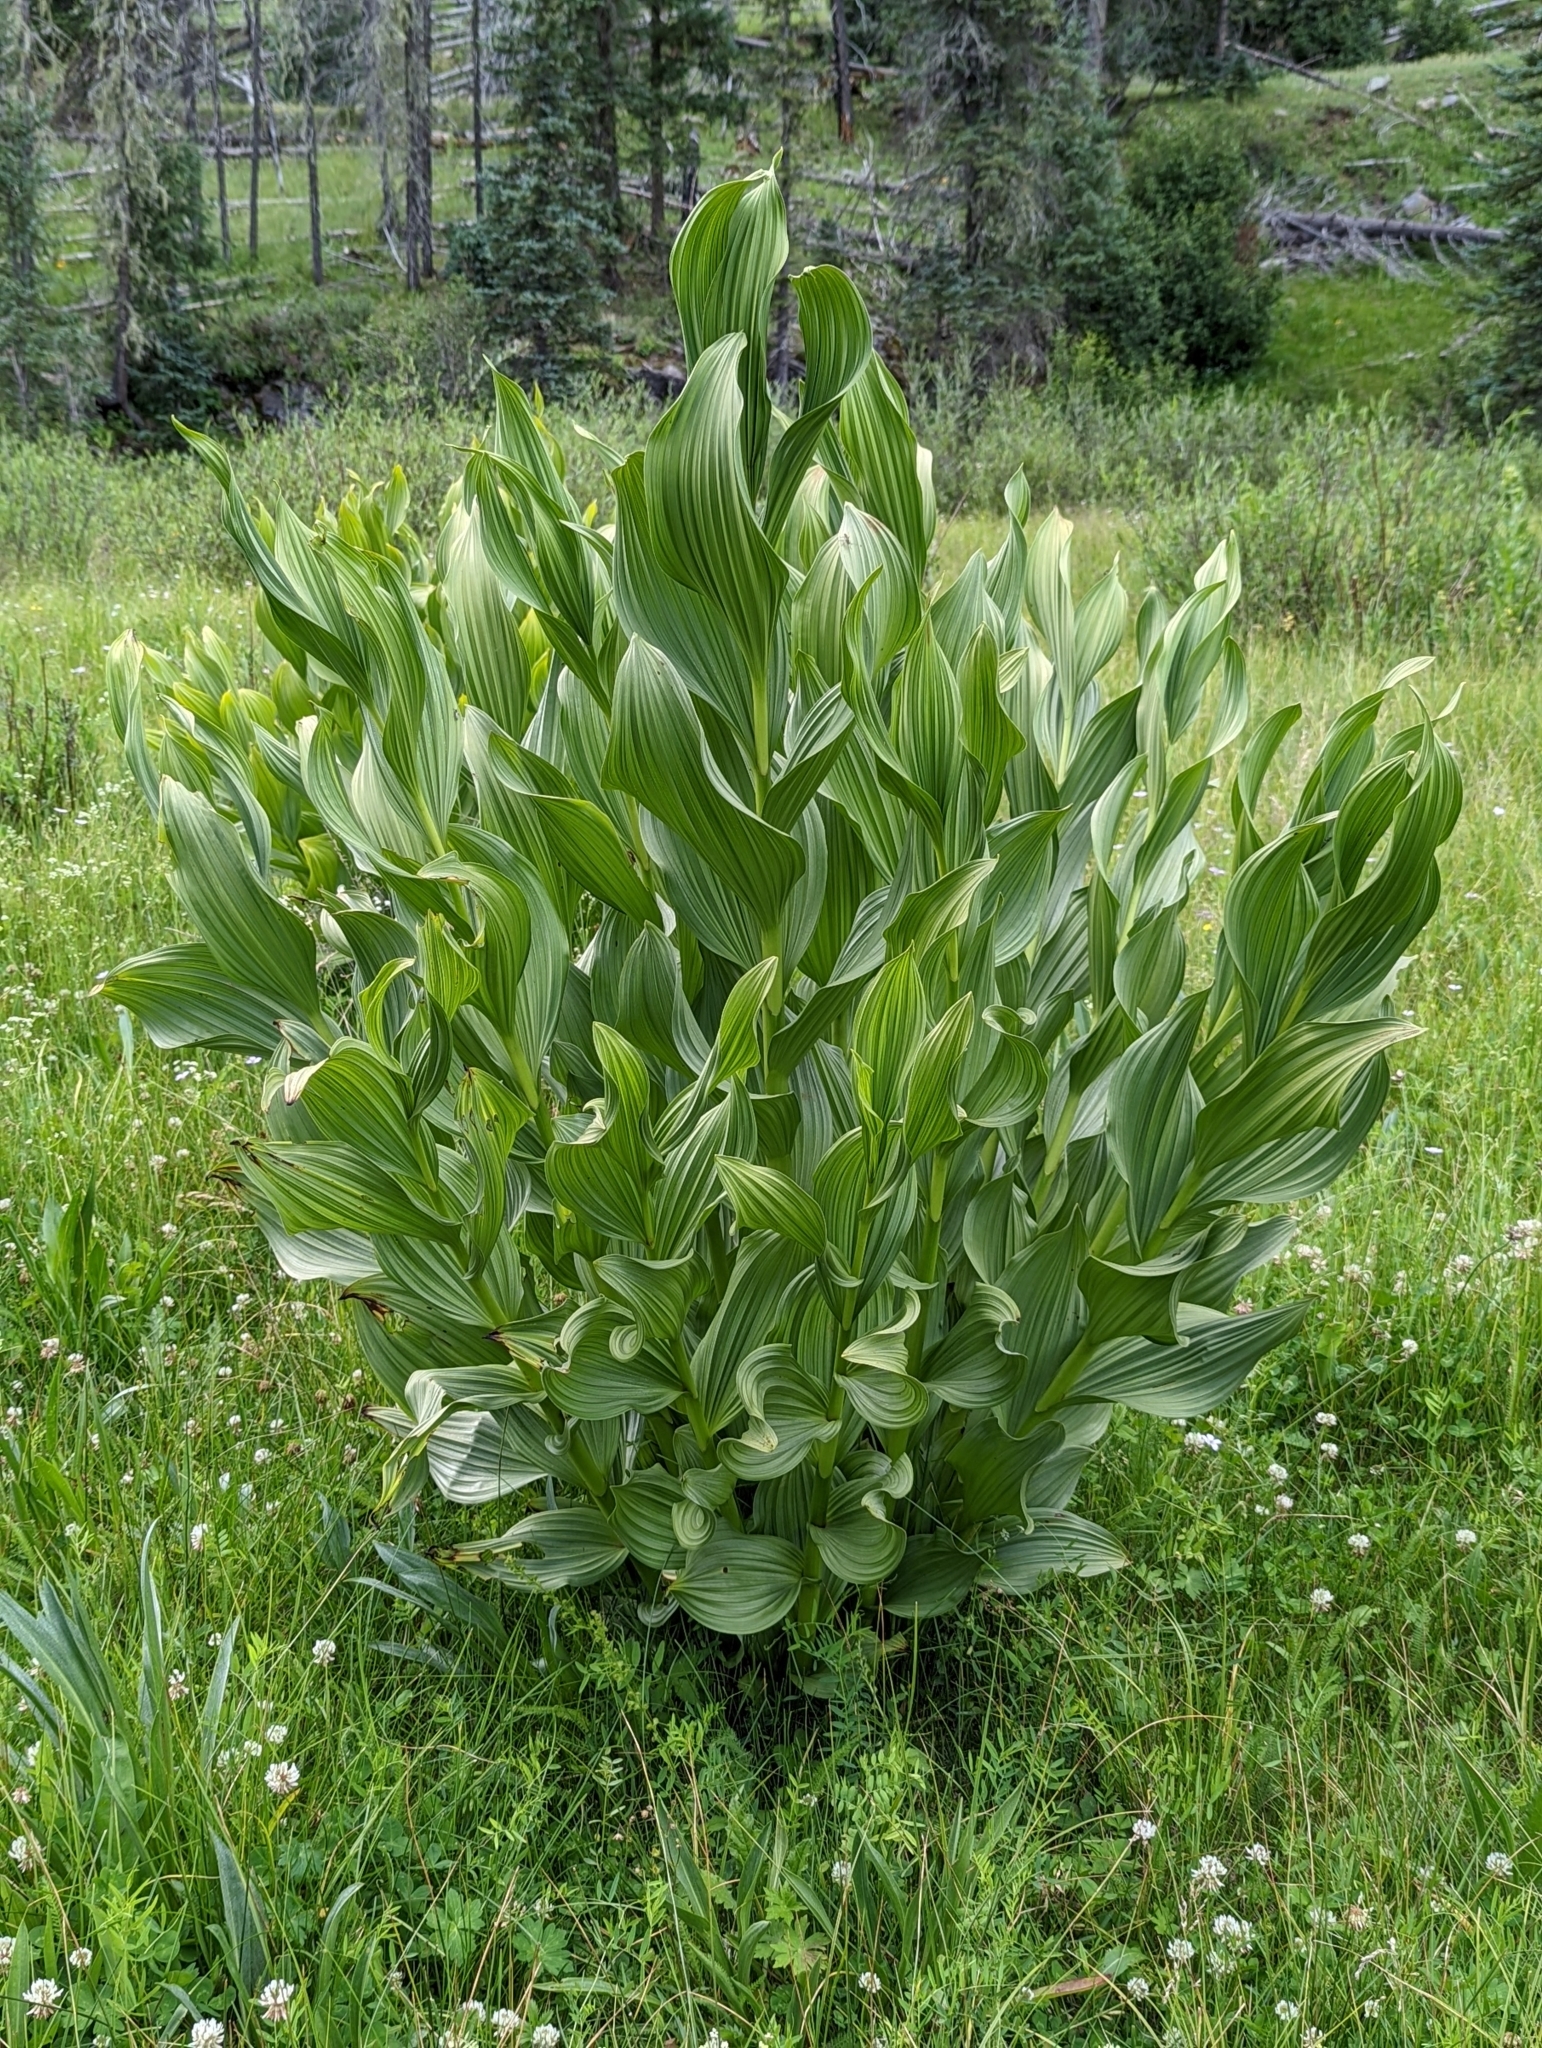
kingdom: Plantae
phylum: Tracheophyta
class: Liliopsida
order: Liliales
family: Melanthiaceae
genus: Veratrum
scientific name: Veratrum californicum
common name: California veratrum
